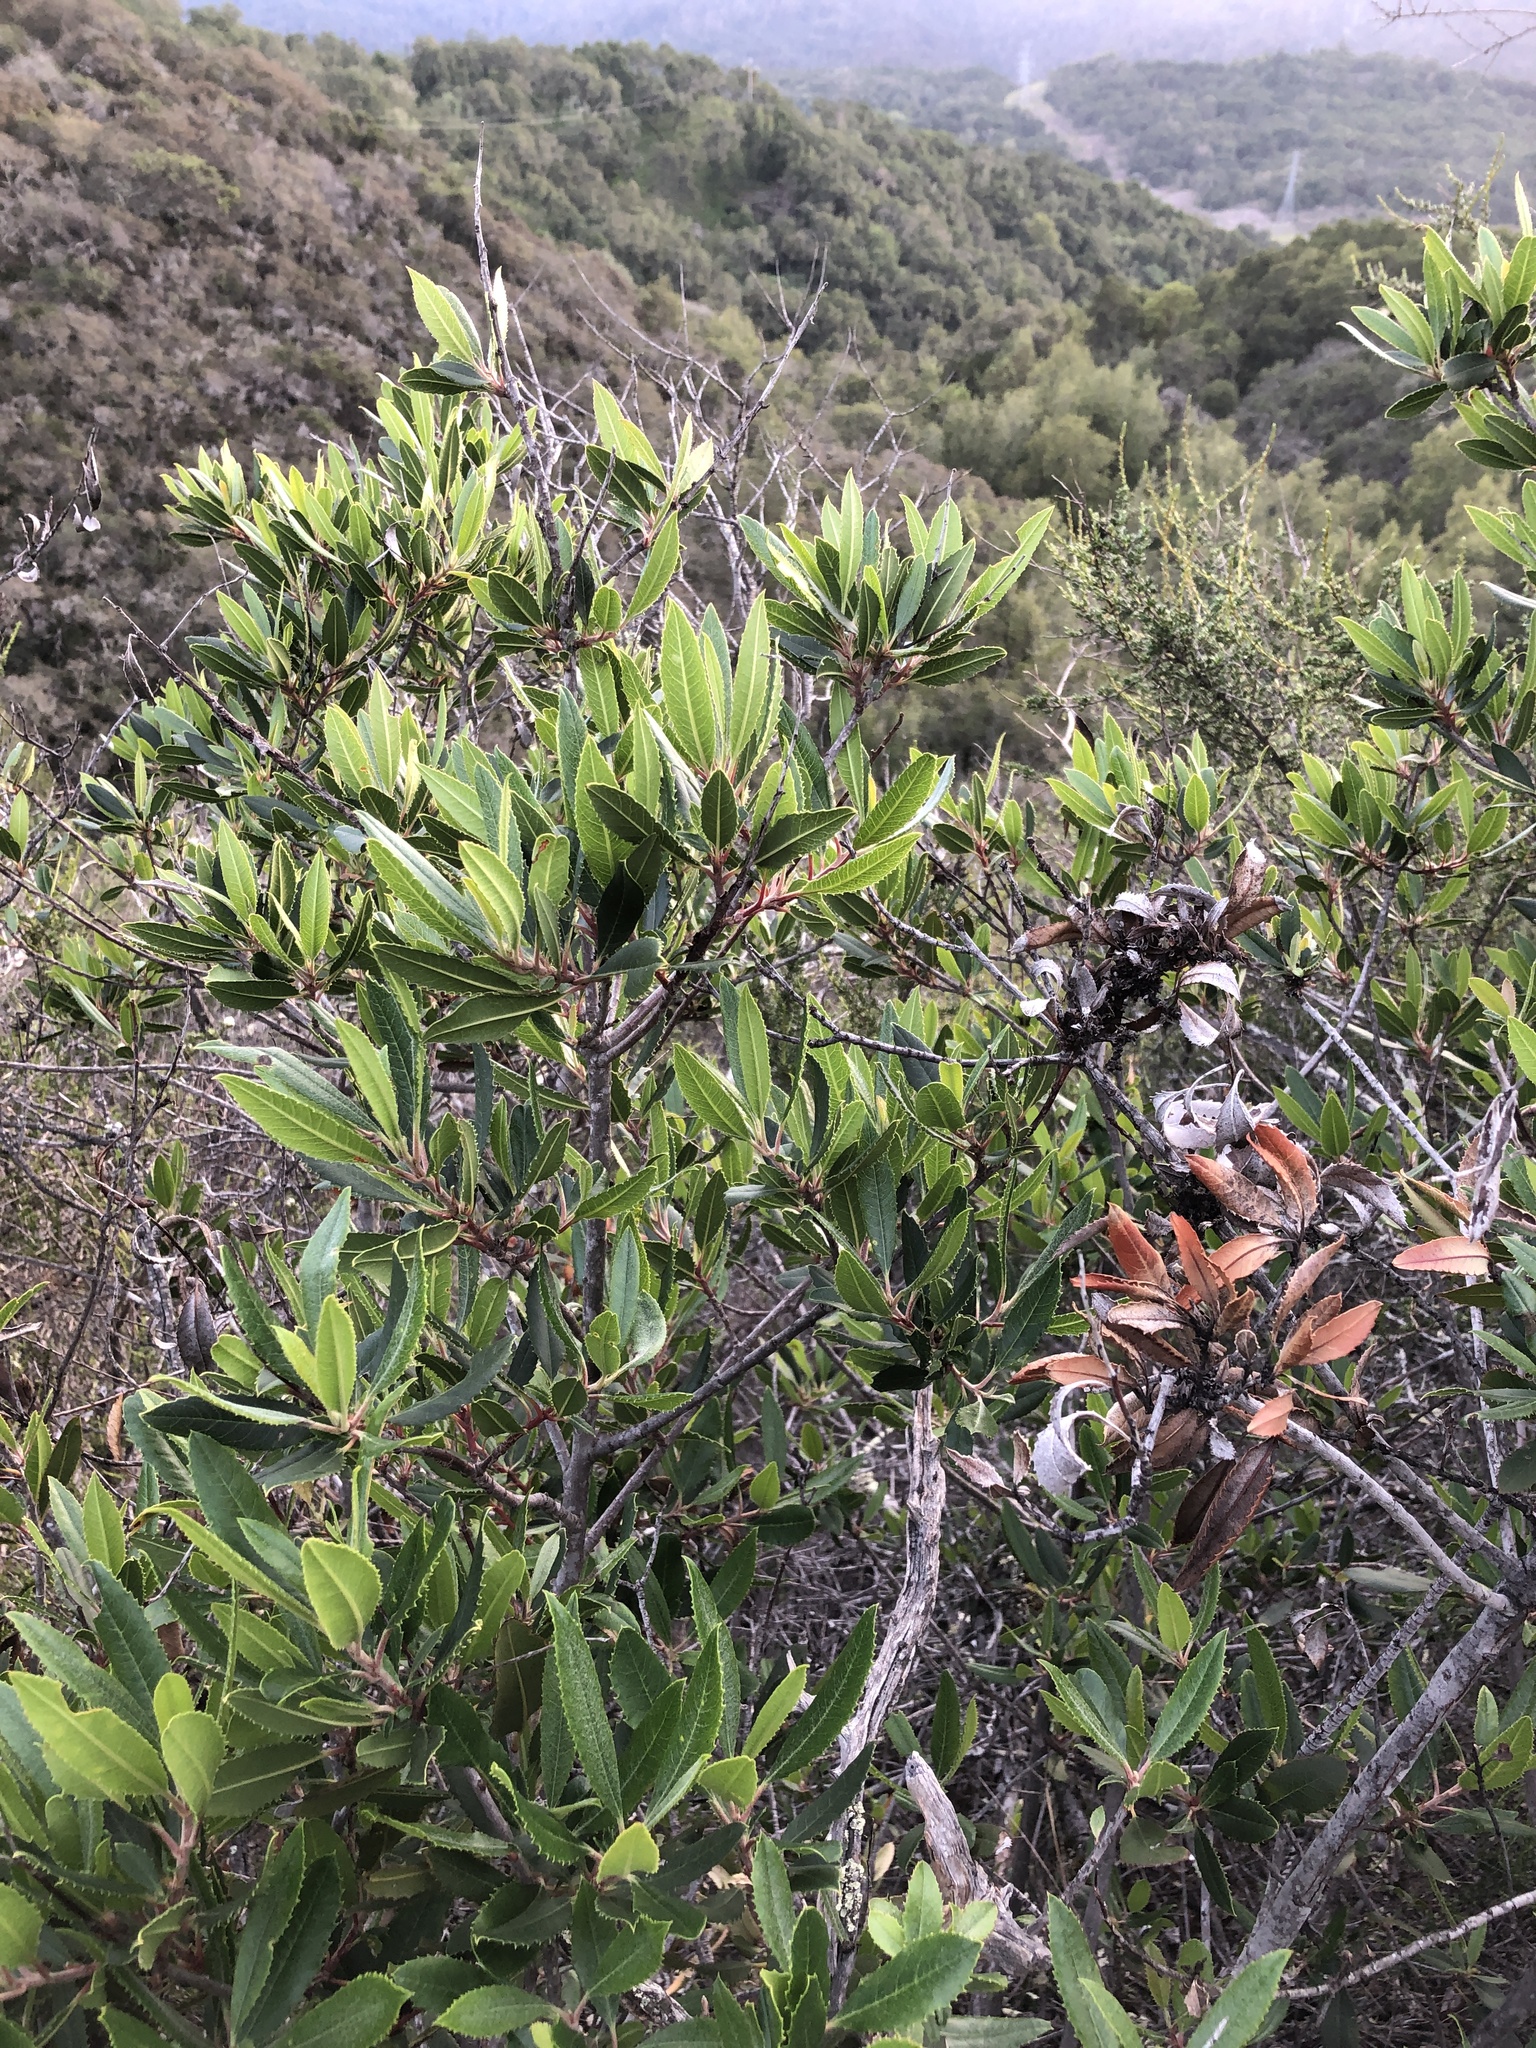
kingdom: Plantae
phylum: Tracheophyta
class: Magnoliopsida
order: Rosales
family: Rosaceae
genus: Heteromeles
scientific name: Heteromeles arbutifolia
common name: California-holly
